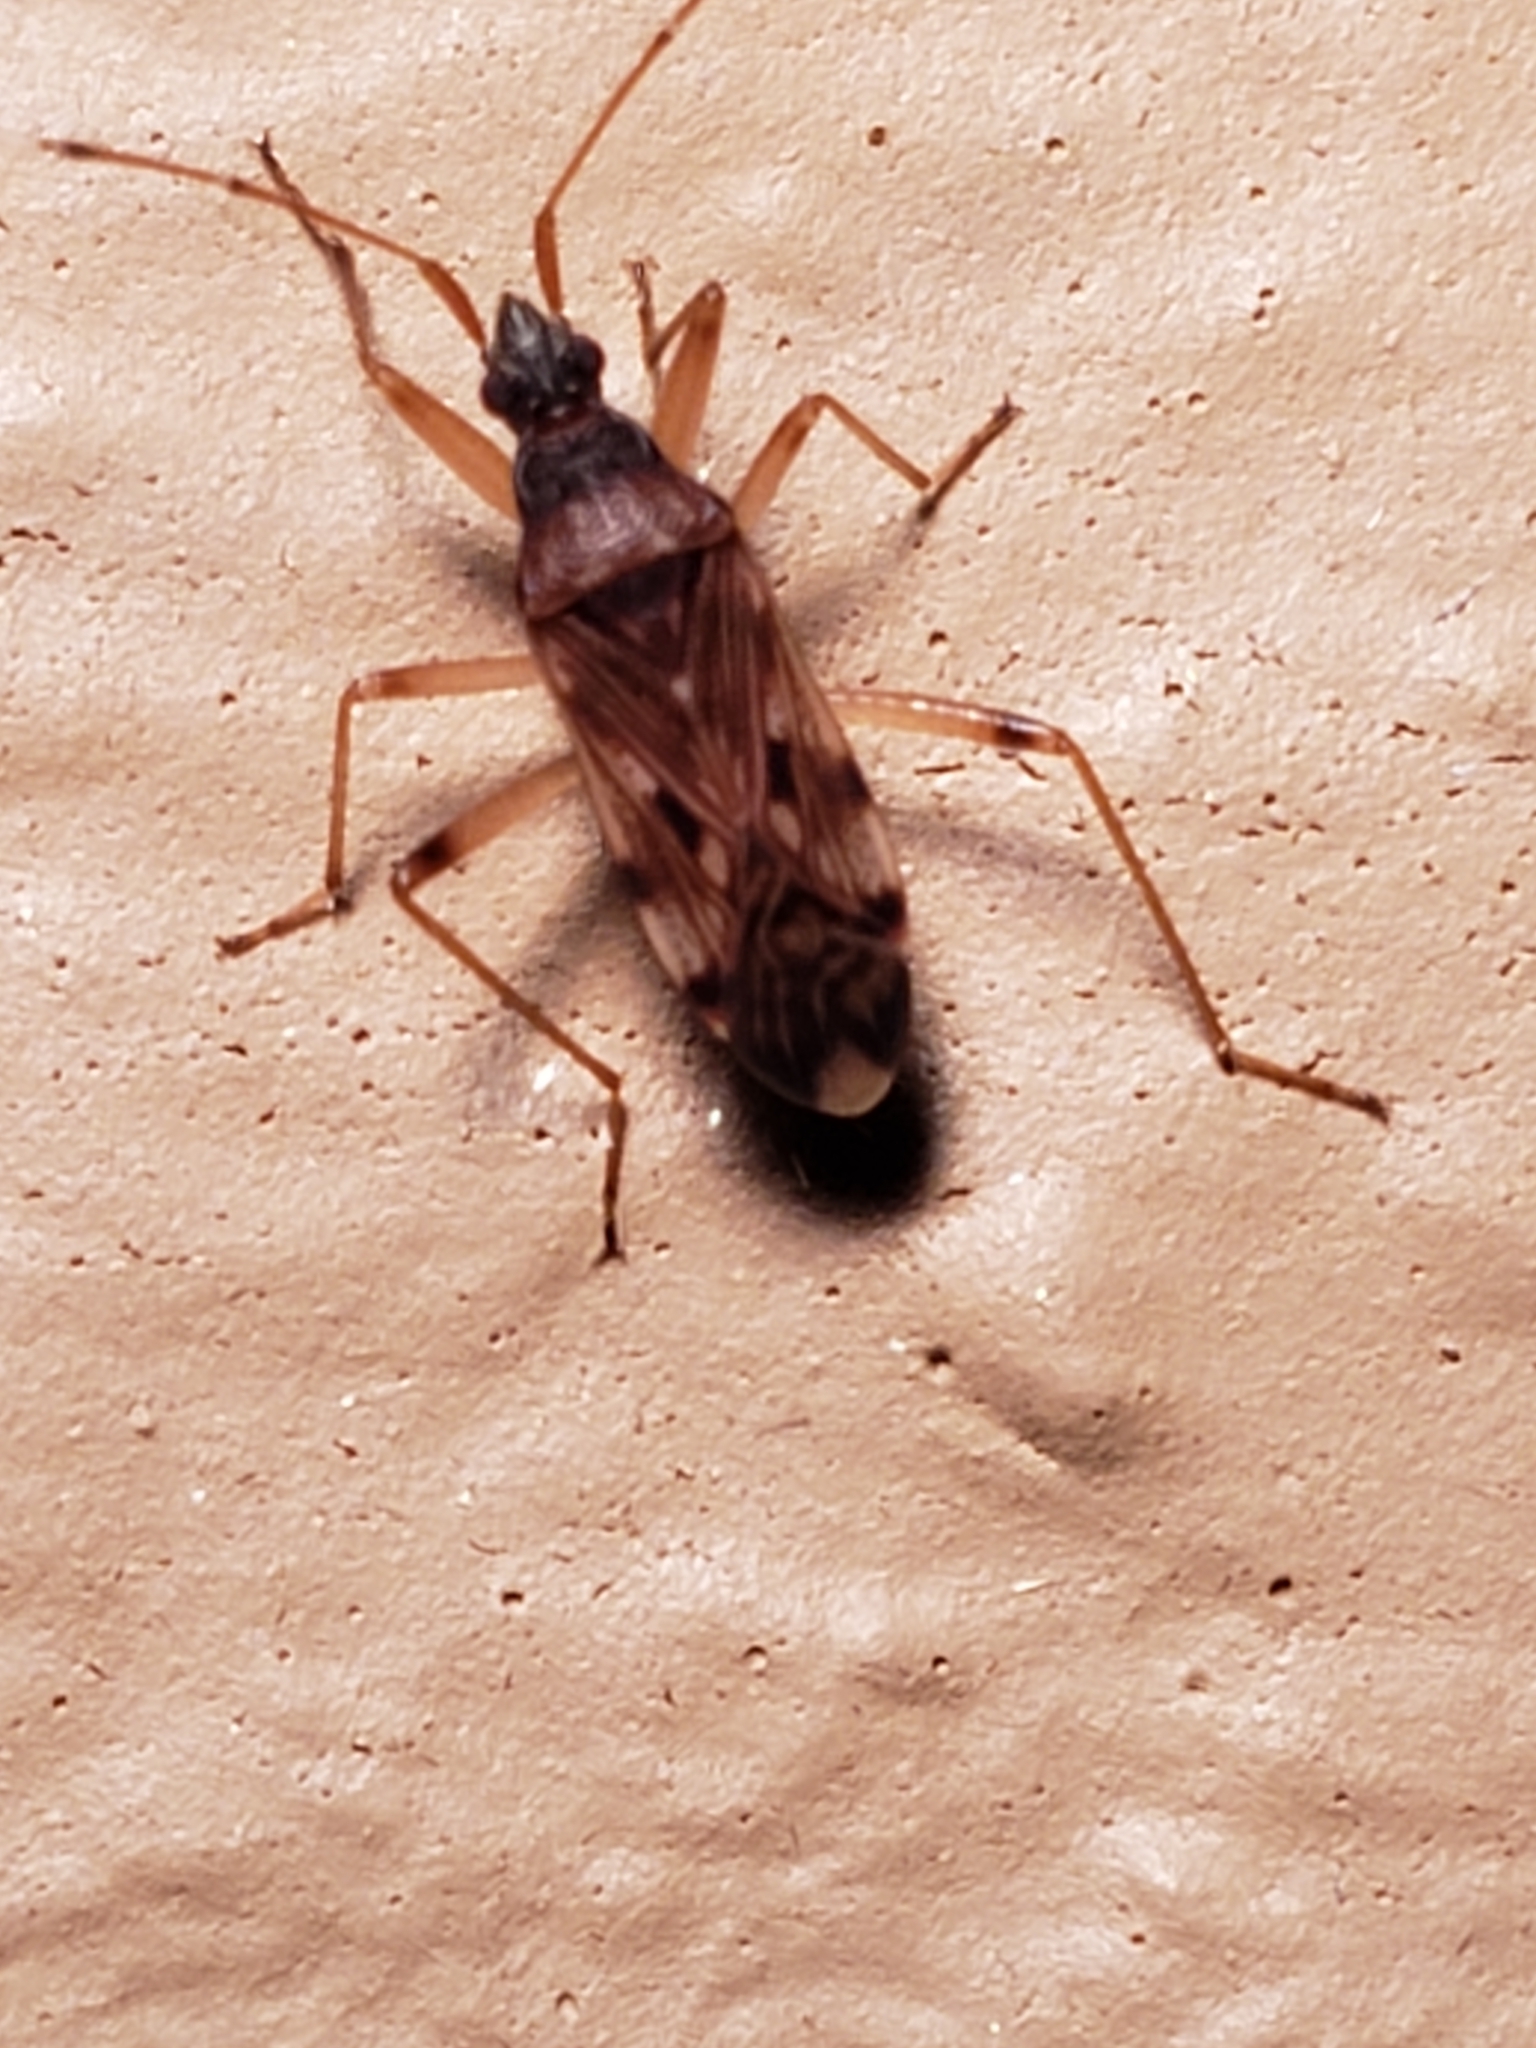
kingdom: Animalia
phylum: Arthropoda
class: Insecta
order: Hemiptera
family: Rhyparochromidae
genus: Ozophora
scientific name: Ozophora picturata
